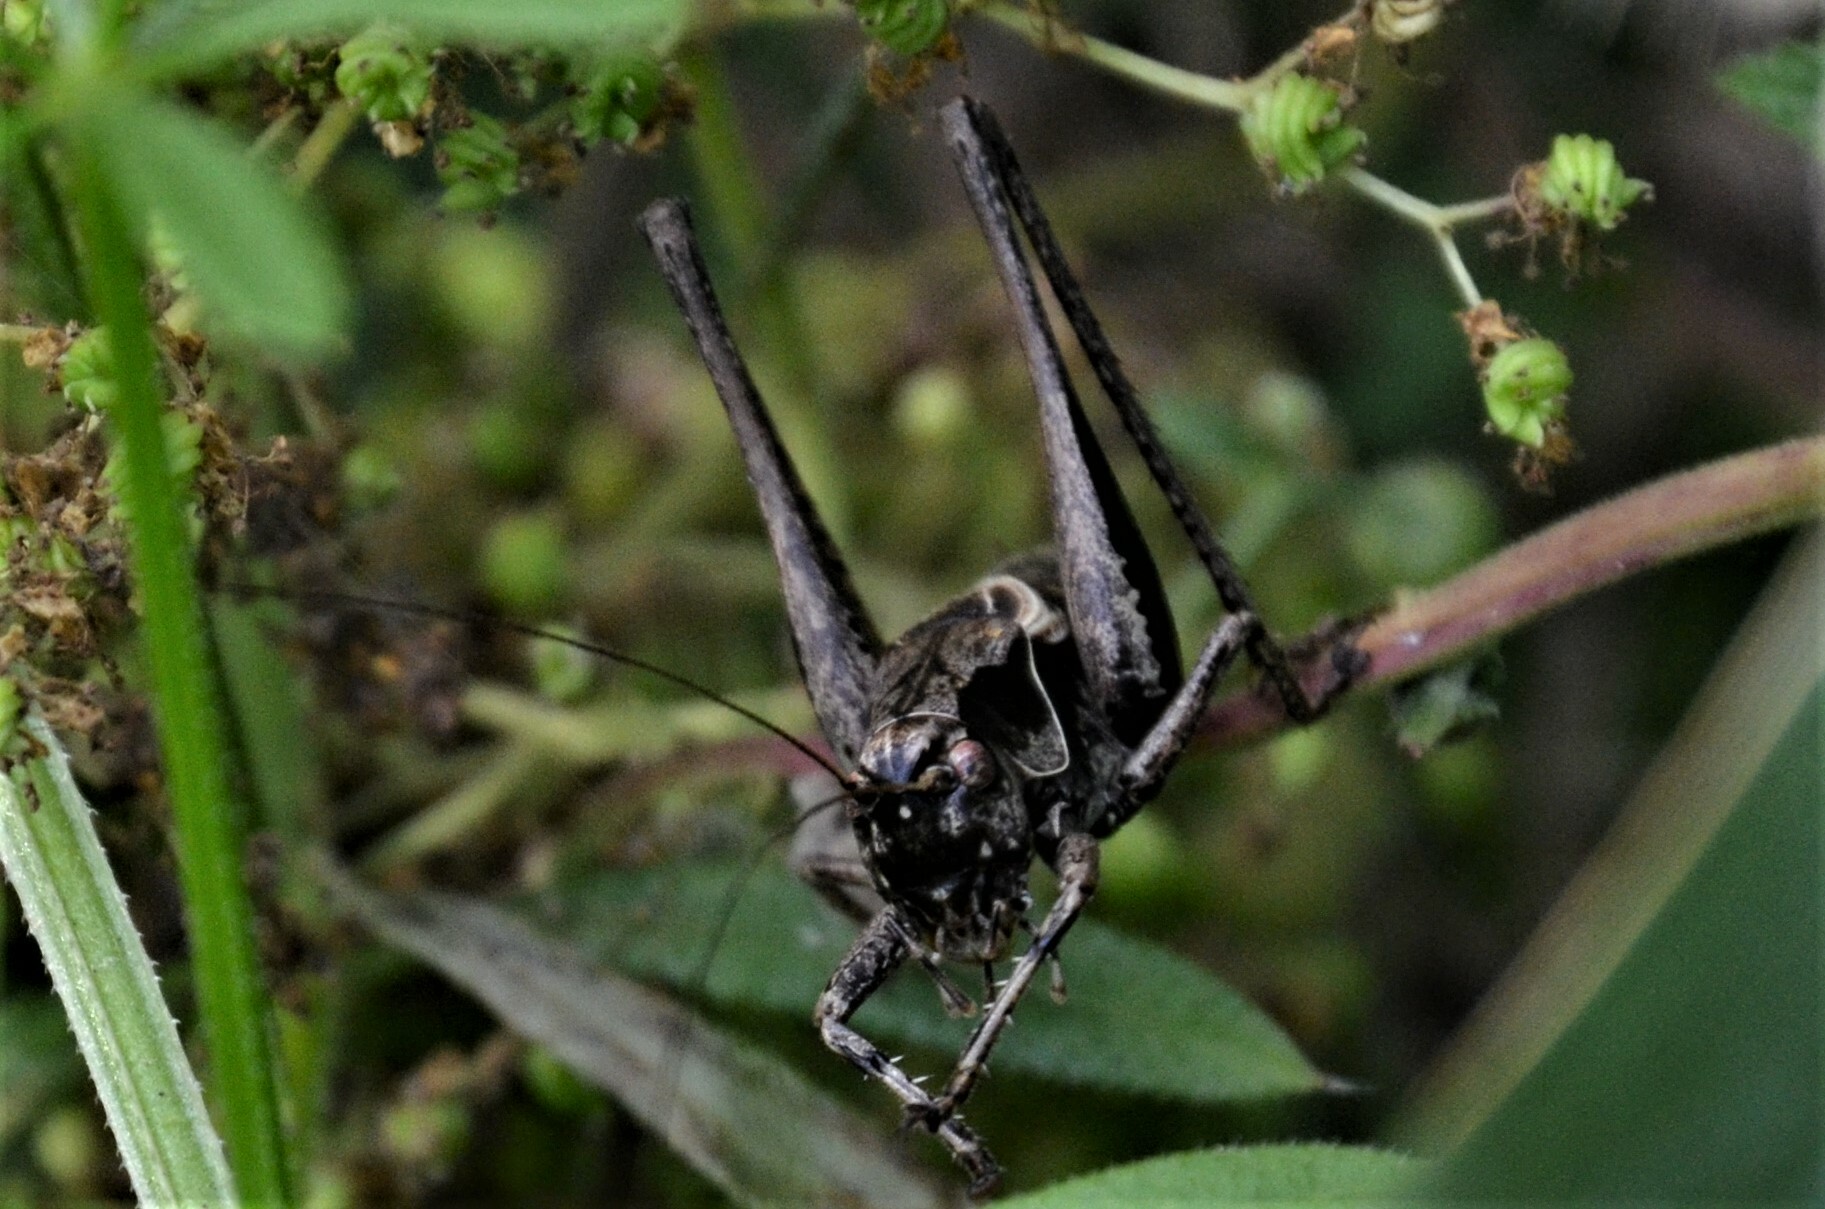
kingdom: Animalia
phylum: Arthropoda
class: Insecta
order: Orthoptera
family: Tettigoniidae
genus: Pholidoptera
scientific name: Pholidoptera griseoaptera
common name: Dark bush-cricket
